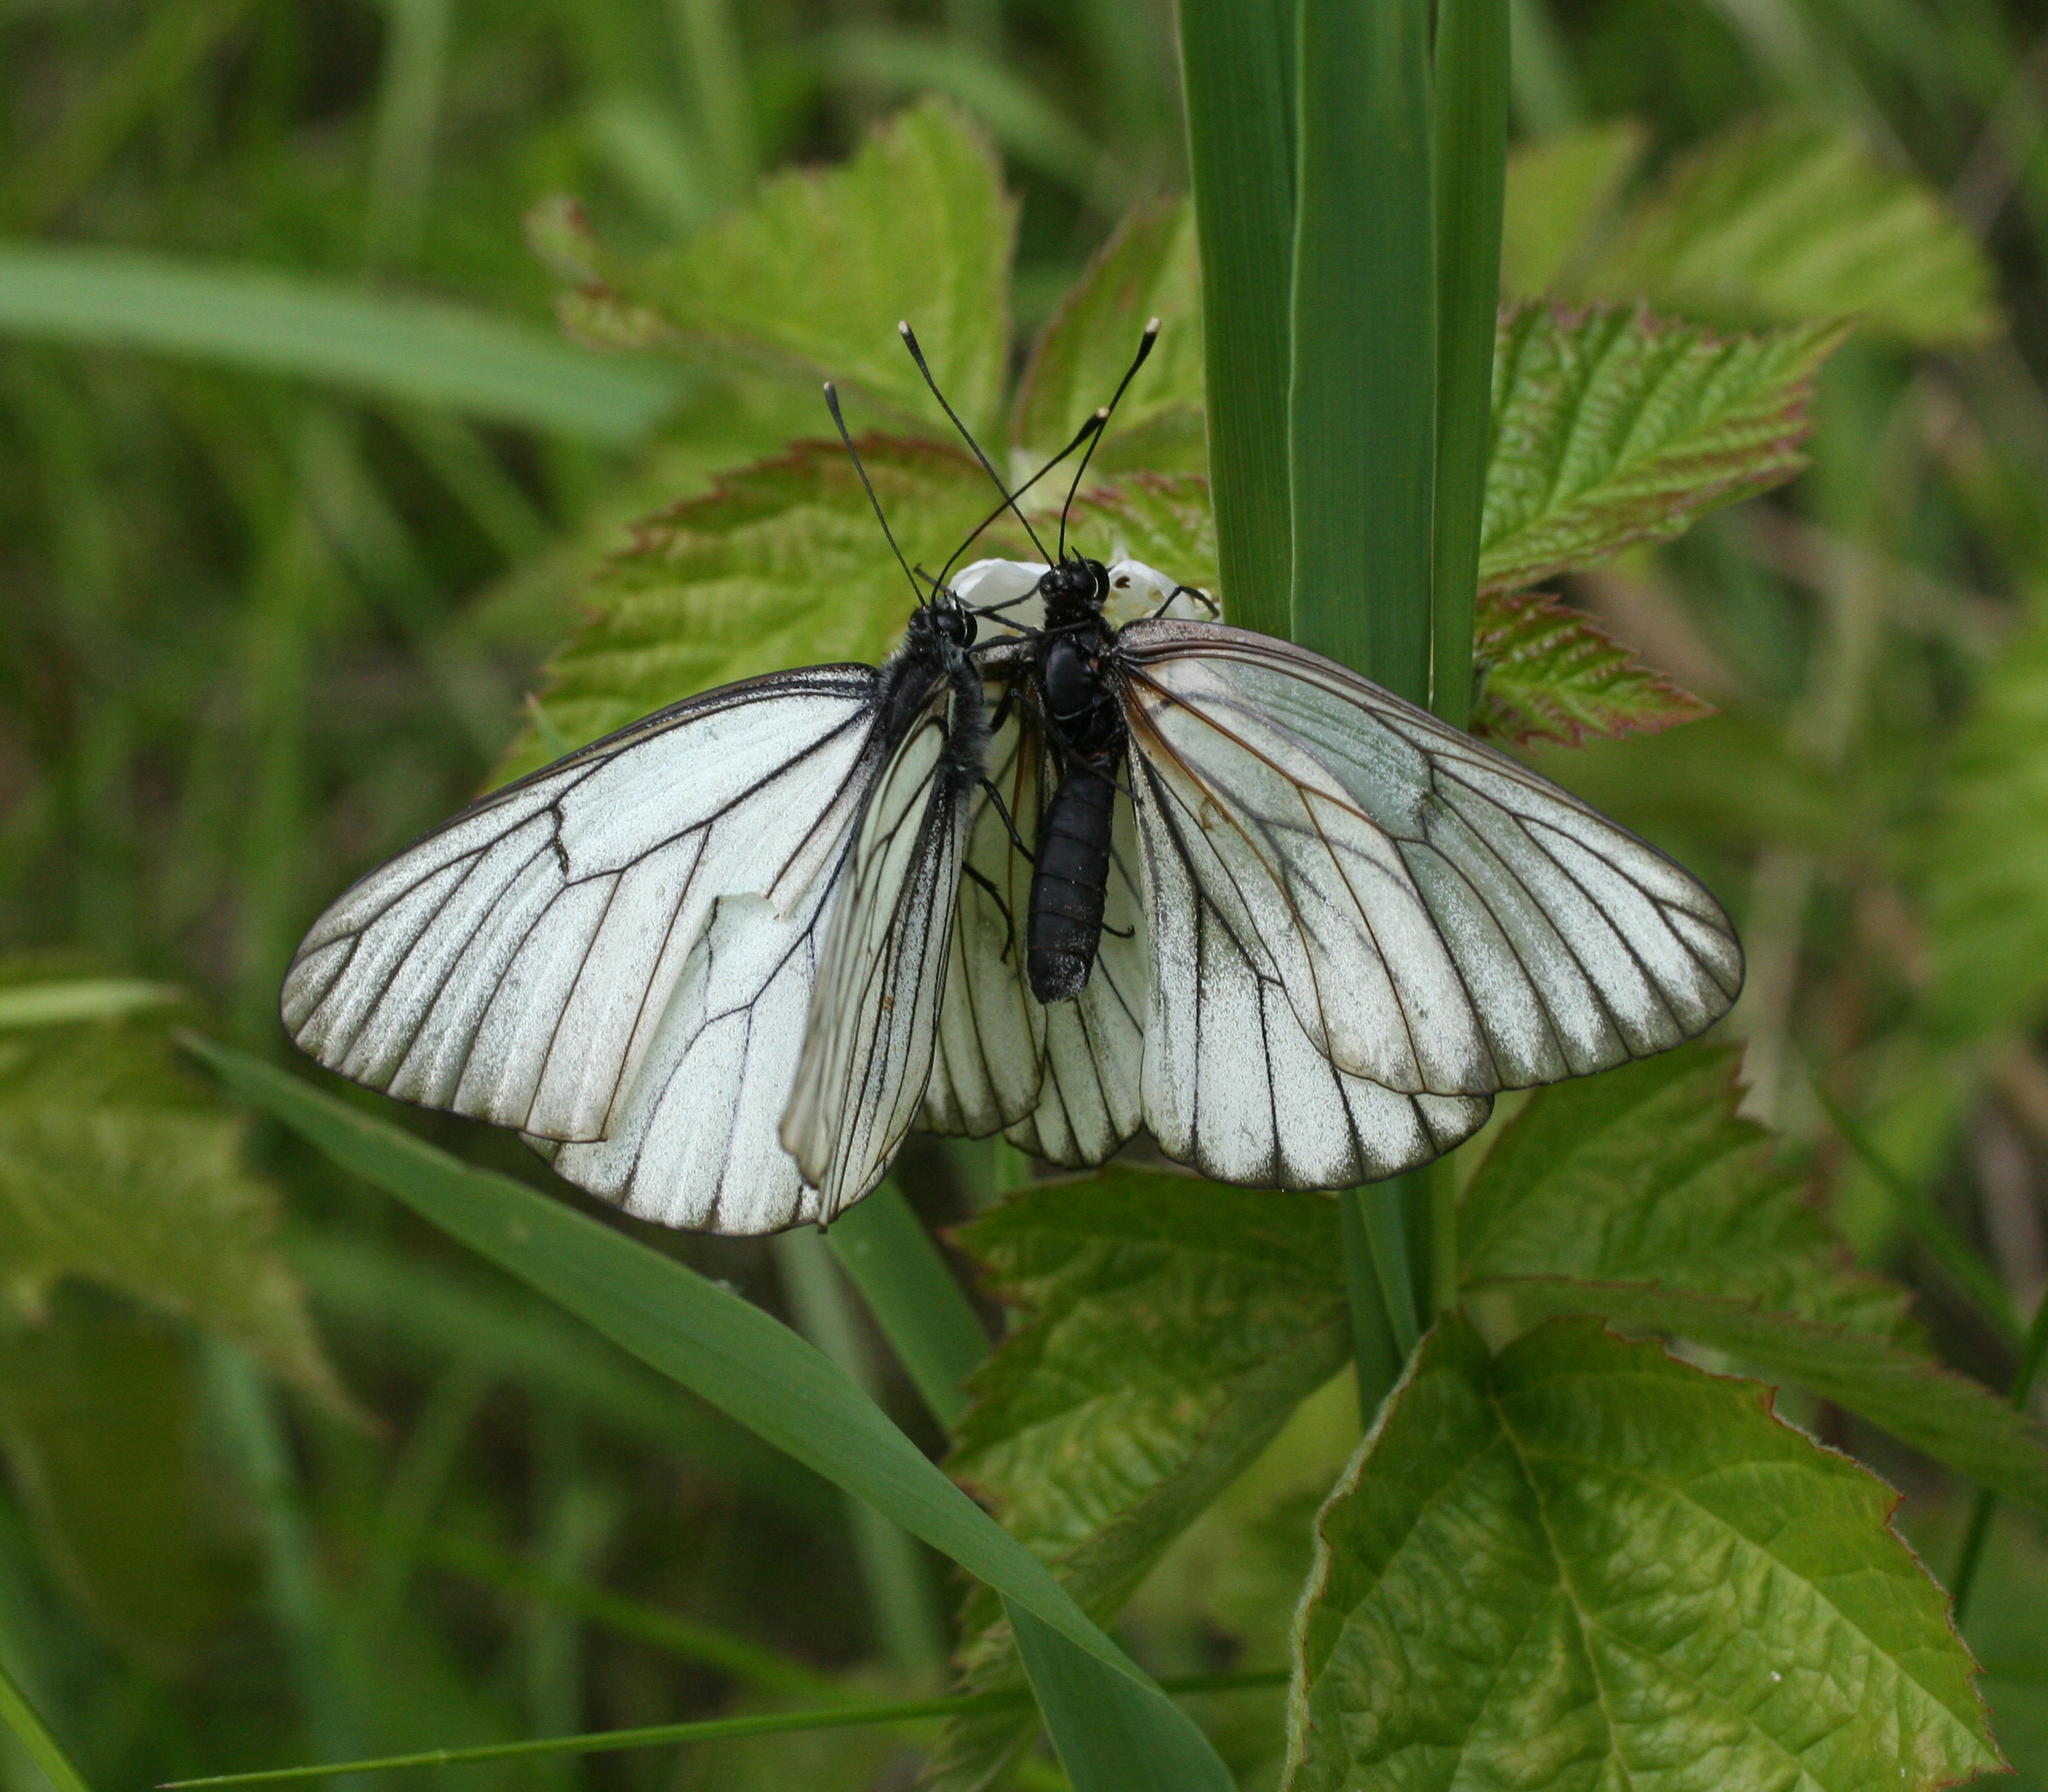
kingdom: Animalia
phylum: Arthropoda
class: Insecta
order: Lepidoptera
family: Pieridae
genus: Aporia
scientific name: Aporia crataegi
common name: Black-veined white
